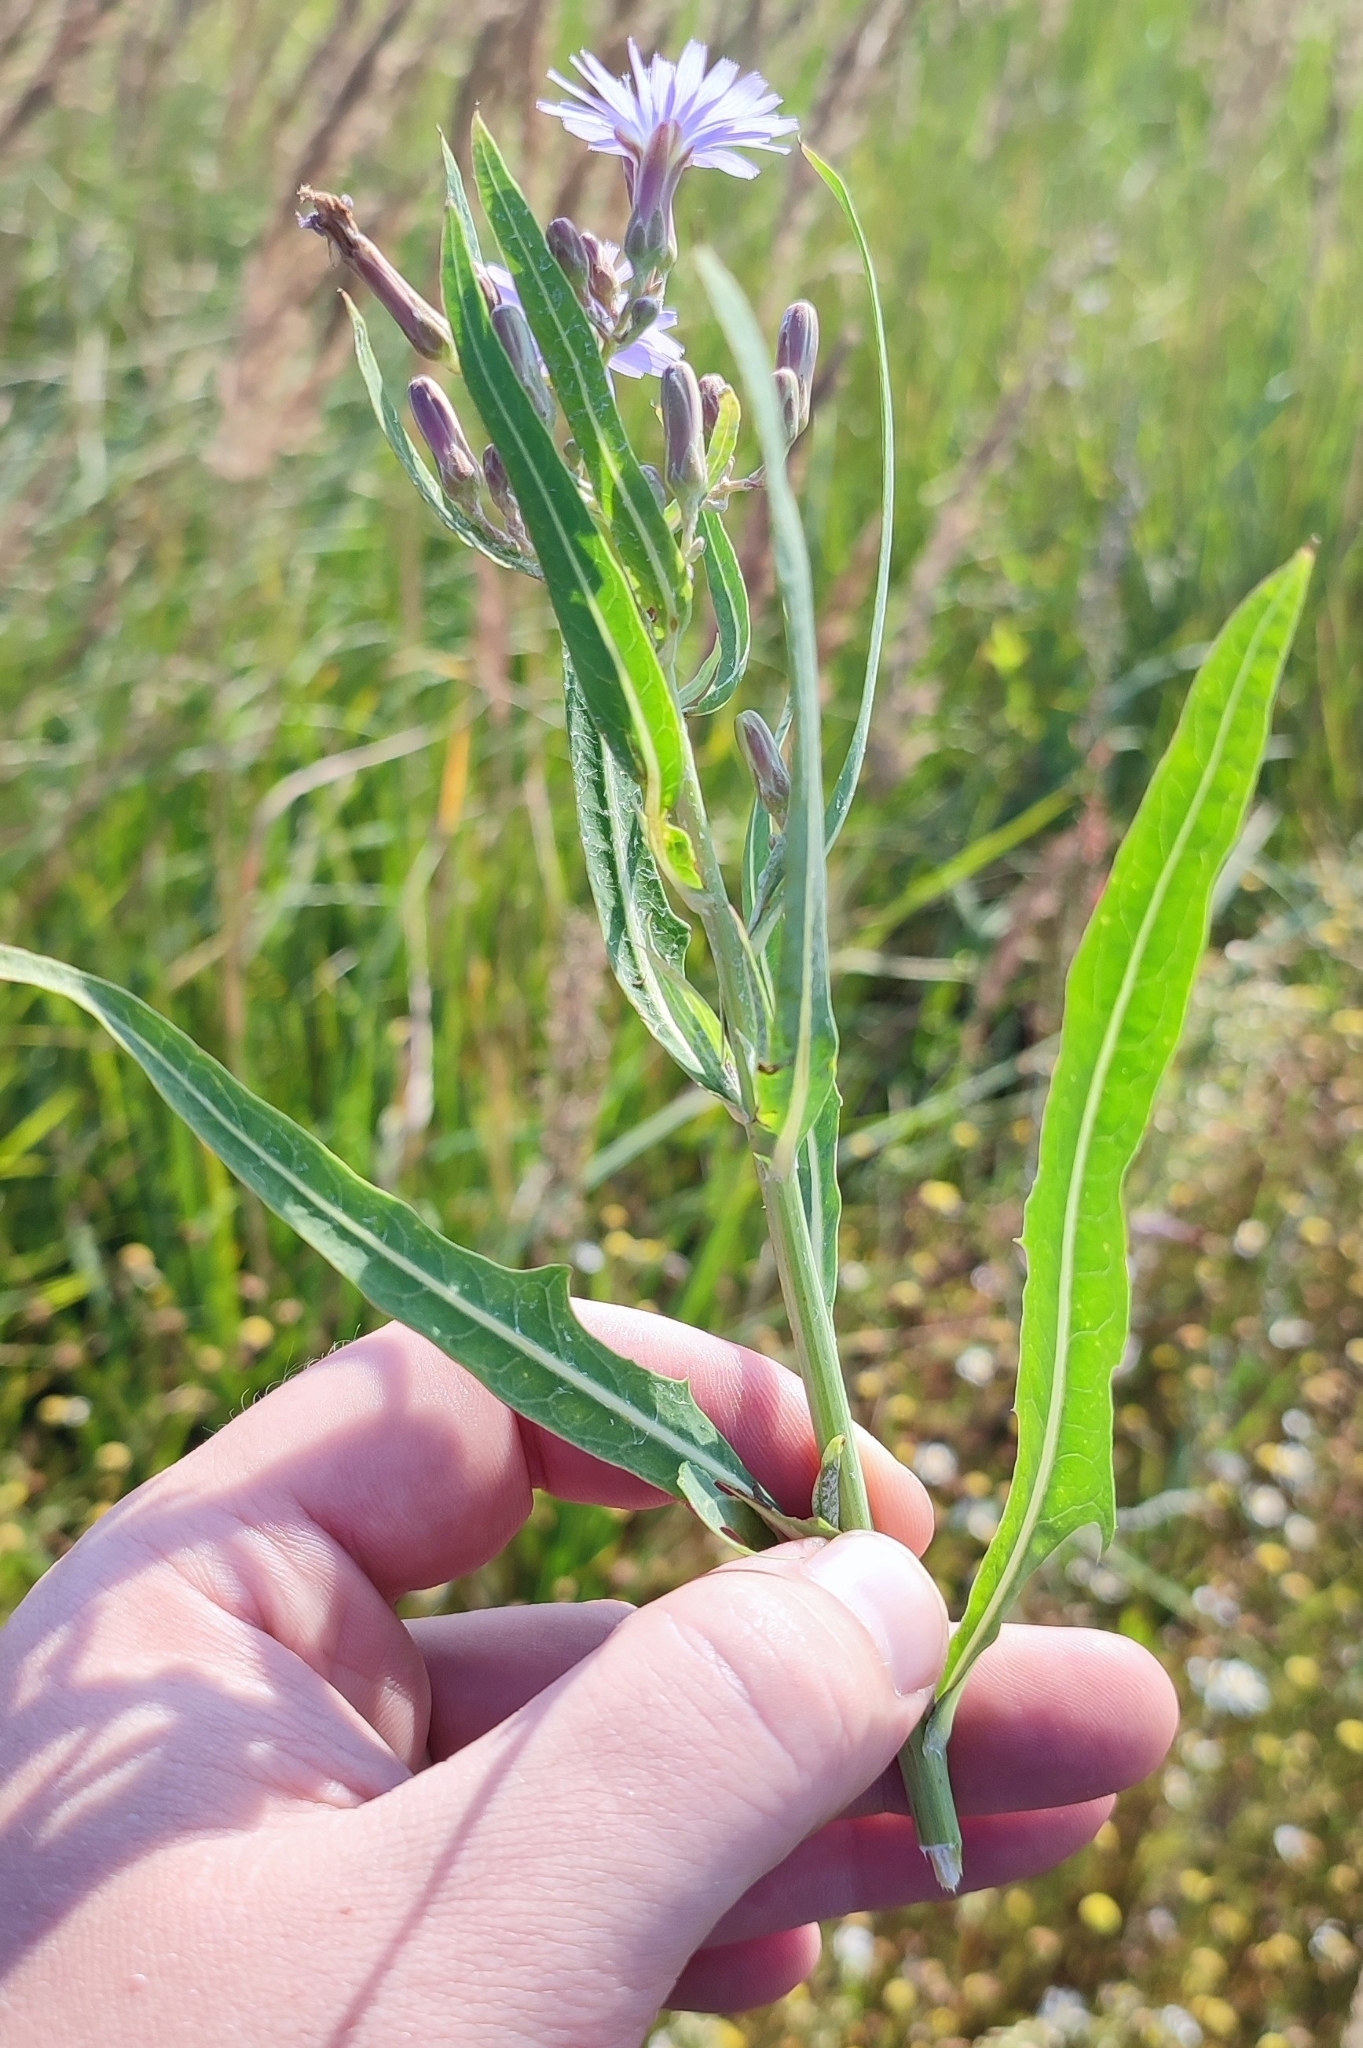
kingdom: Plantae
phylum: Tracheophyta
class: Magnoliopsida
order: Asterales
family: Asteraceae
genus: Lactuca
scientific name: Lactuca tatarica
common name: Blue lettuce
